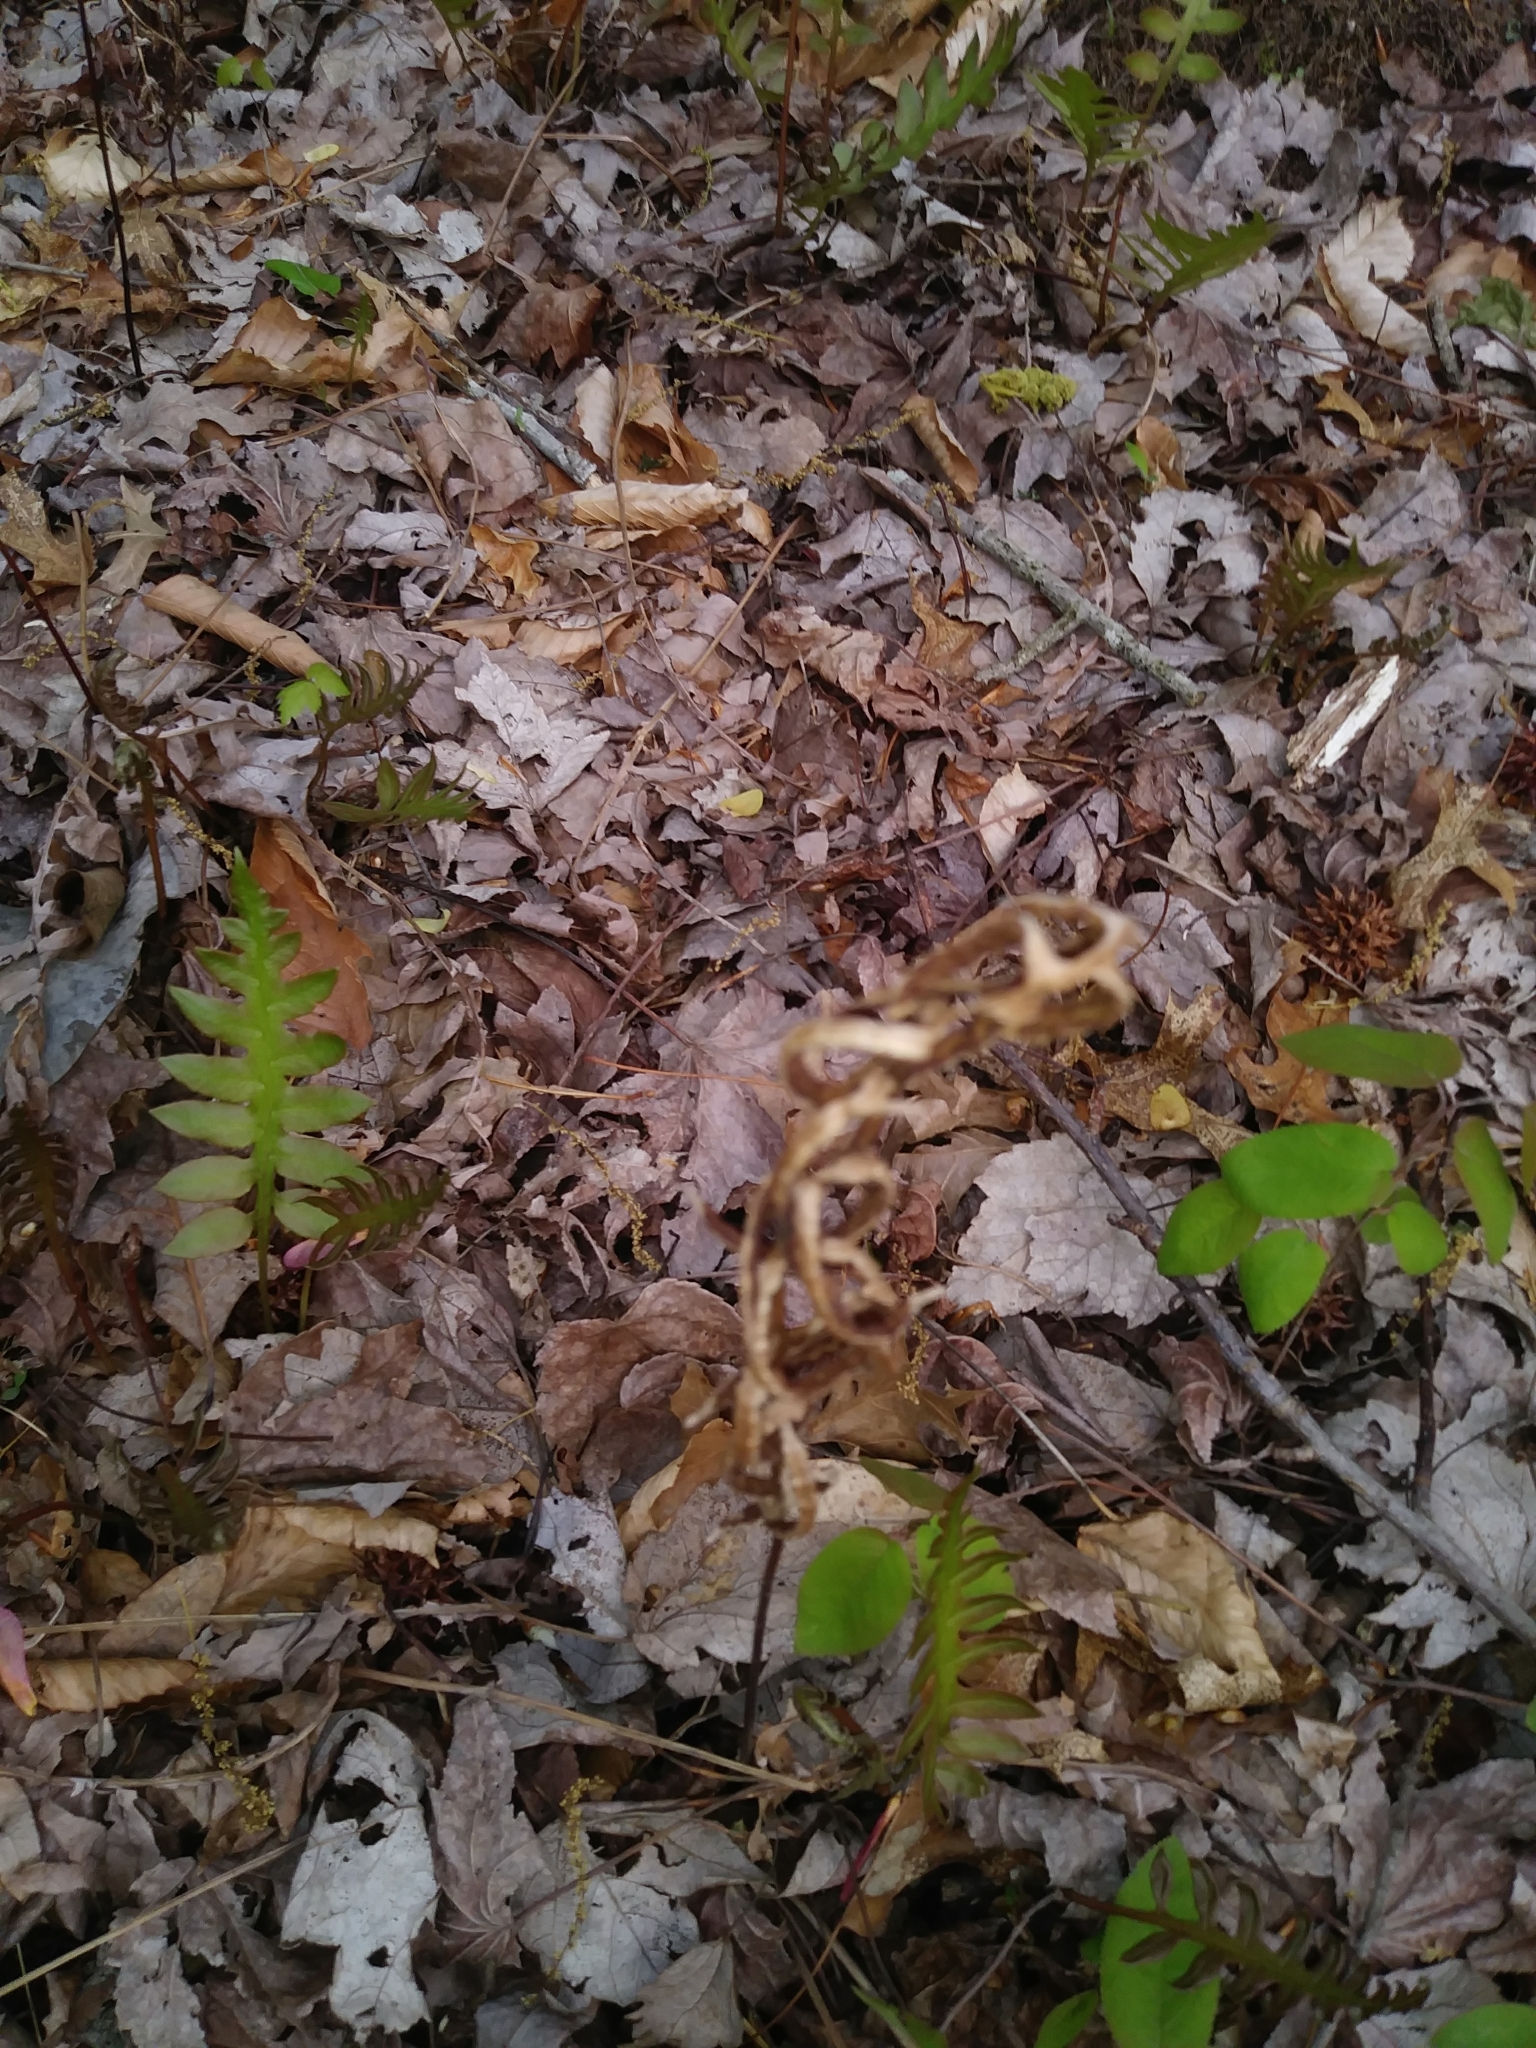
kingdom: Plantae
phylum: Tracheophyta
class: Polypodiopsida
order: Polypodiales
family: Blechnaceae
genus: Lorinseria
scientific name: Lorinseria areolata
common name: Dwarf chain fern
